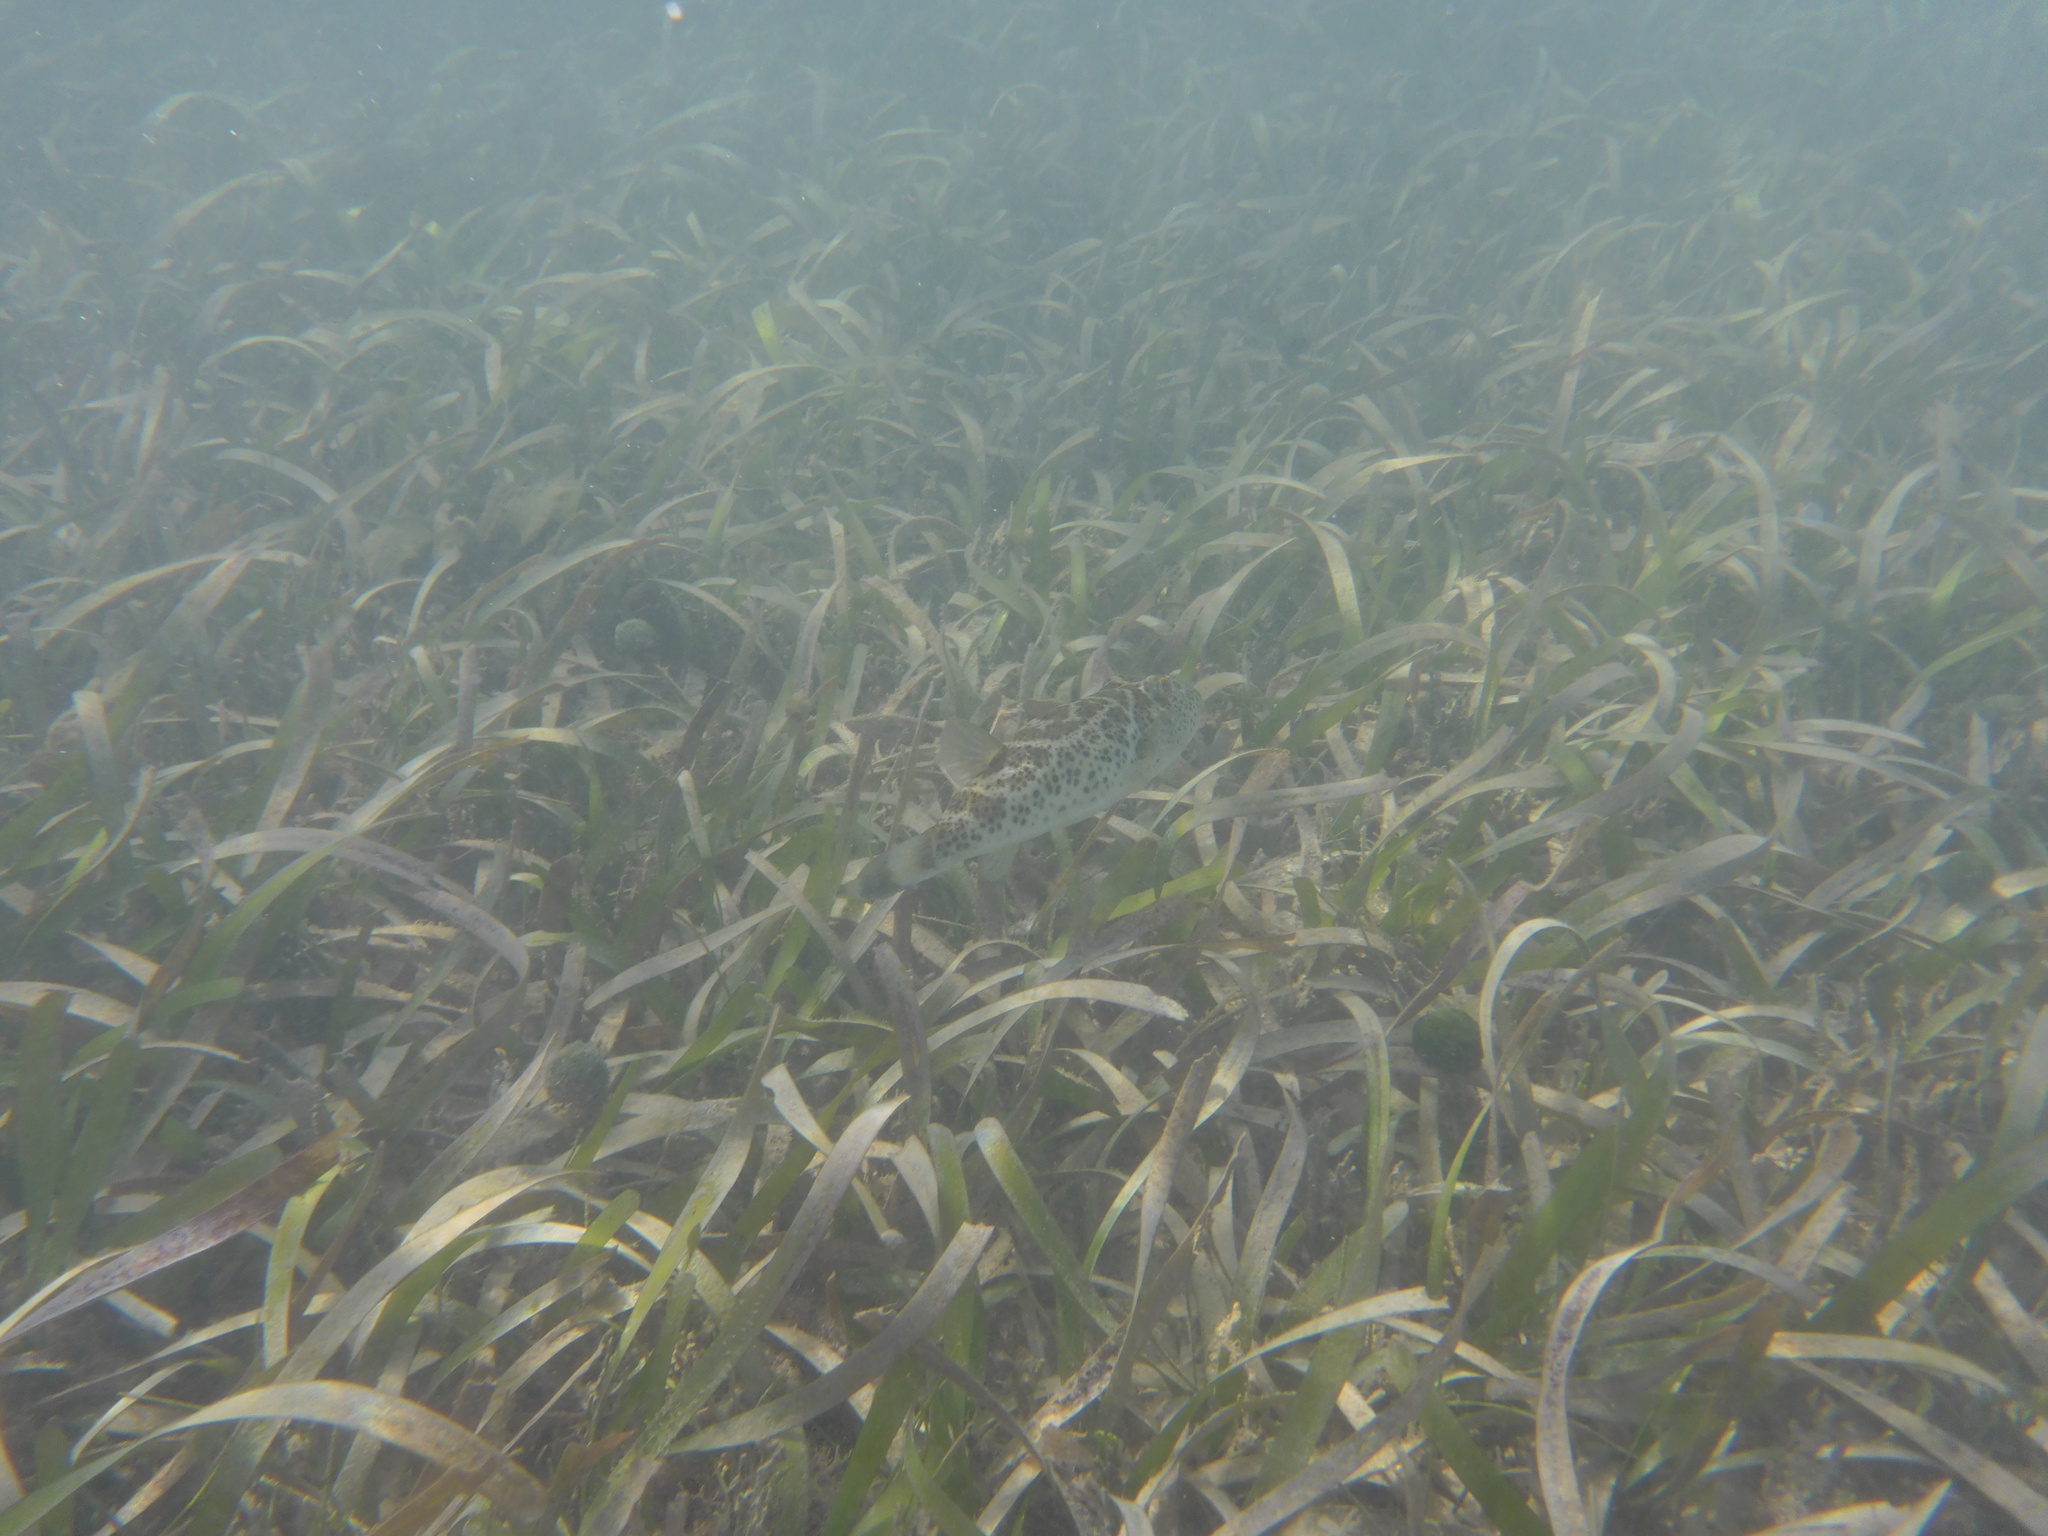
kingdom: Animalia
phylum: Chordata
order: Tetraodontiformes
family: Tetraodontidae
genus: Sphoeroides
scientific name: Sphoeroides testudineus
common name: Checkered puffer
